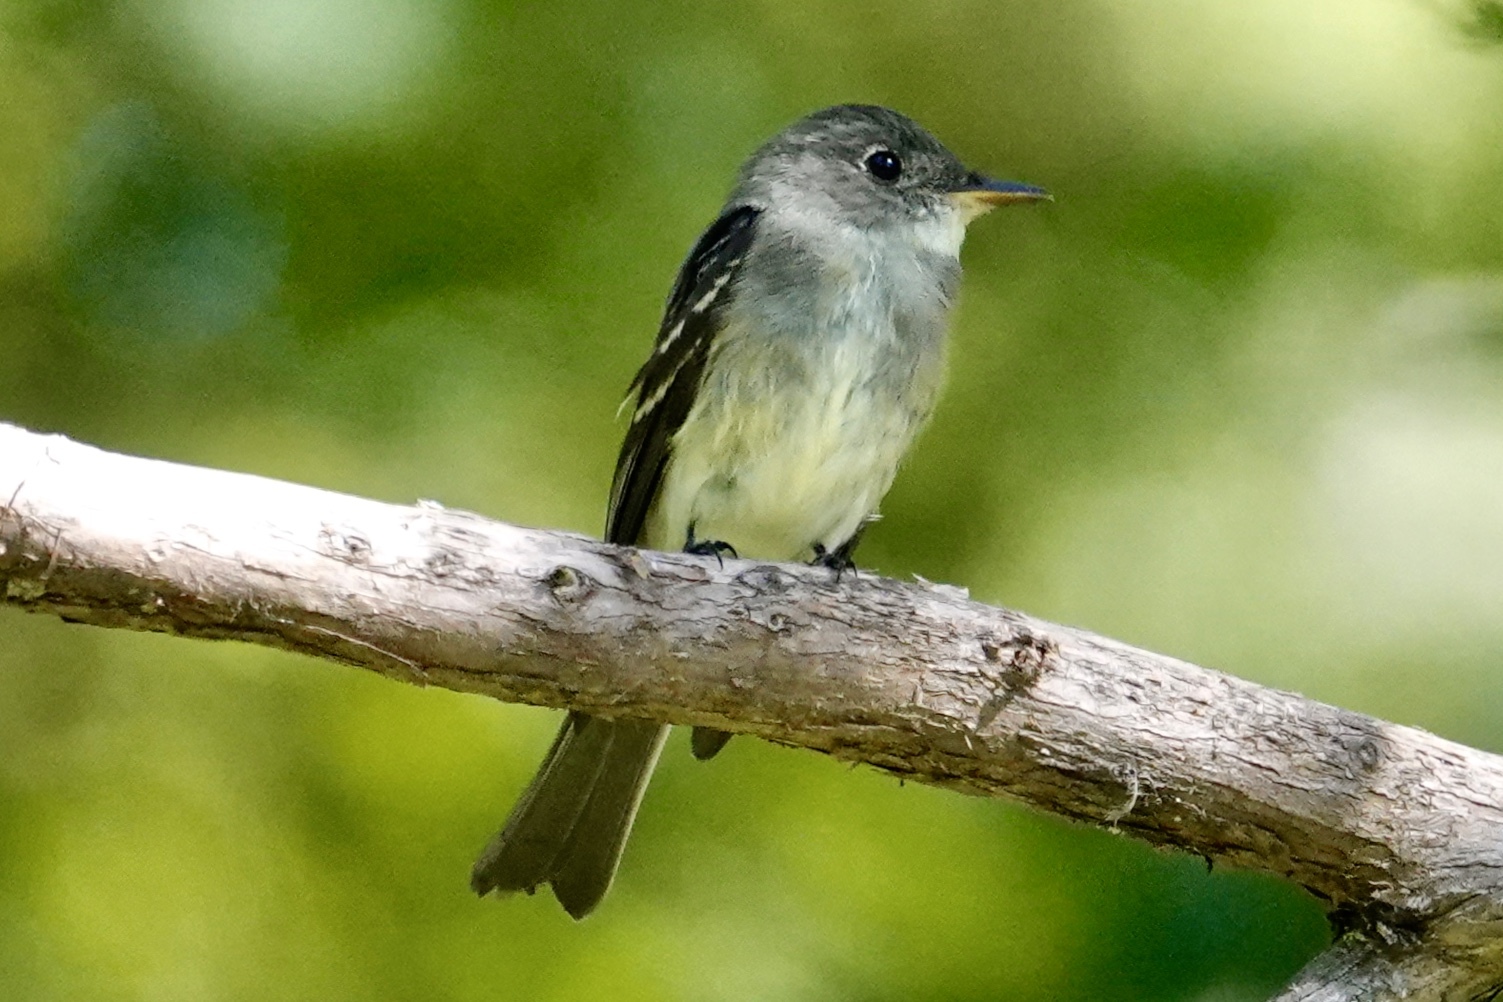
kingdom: Animalia
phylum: Chordata
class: Aves
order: Passeriformes
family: Tyrannidae
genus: Contopus
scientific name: Contopus virens
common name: Eastern wood-pewee
